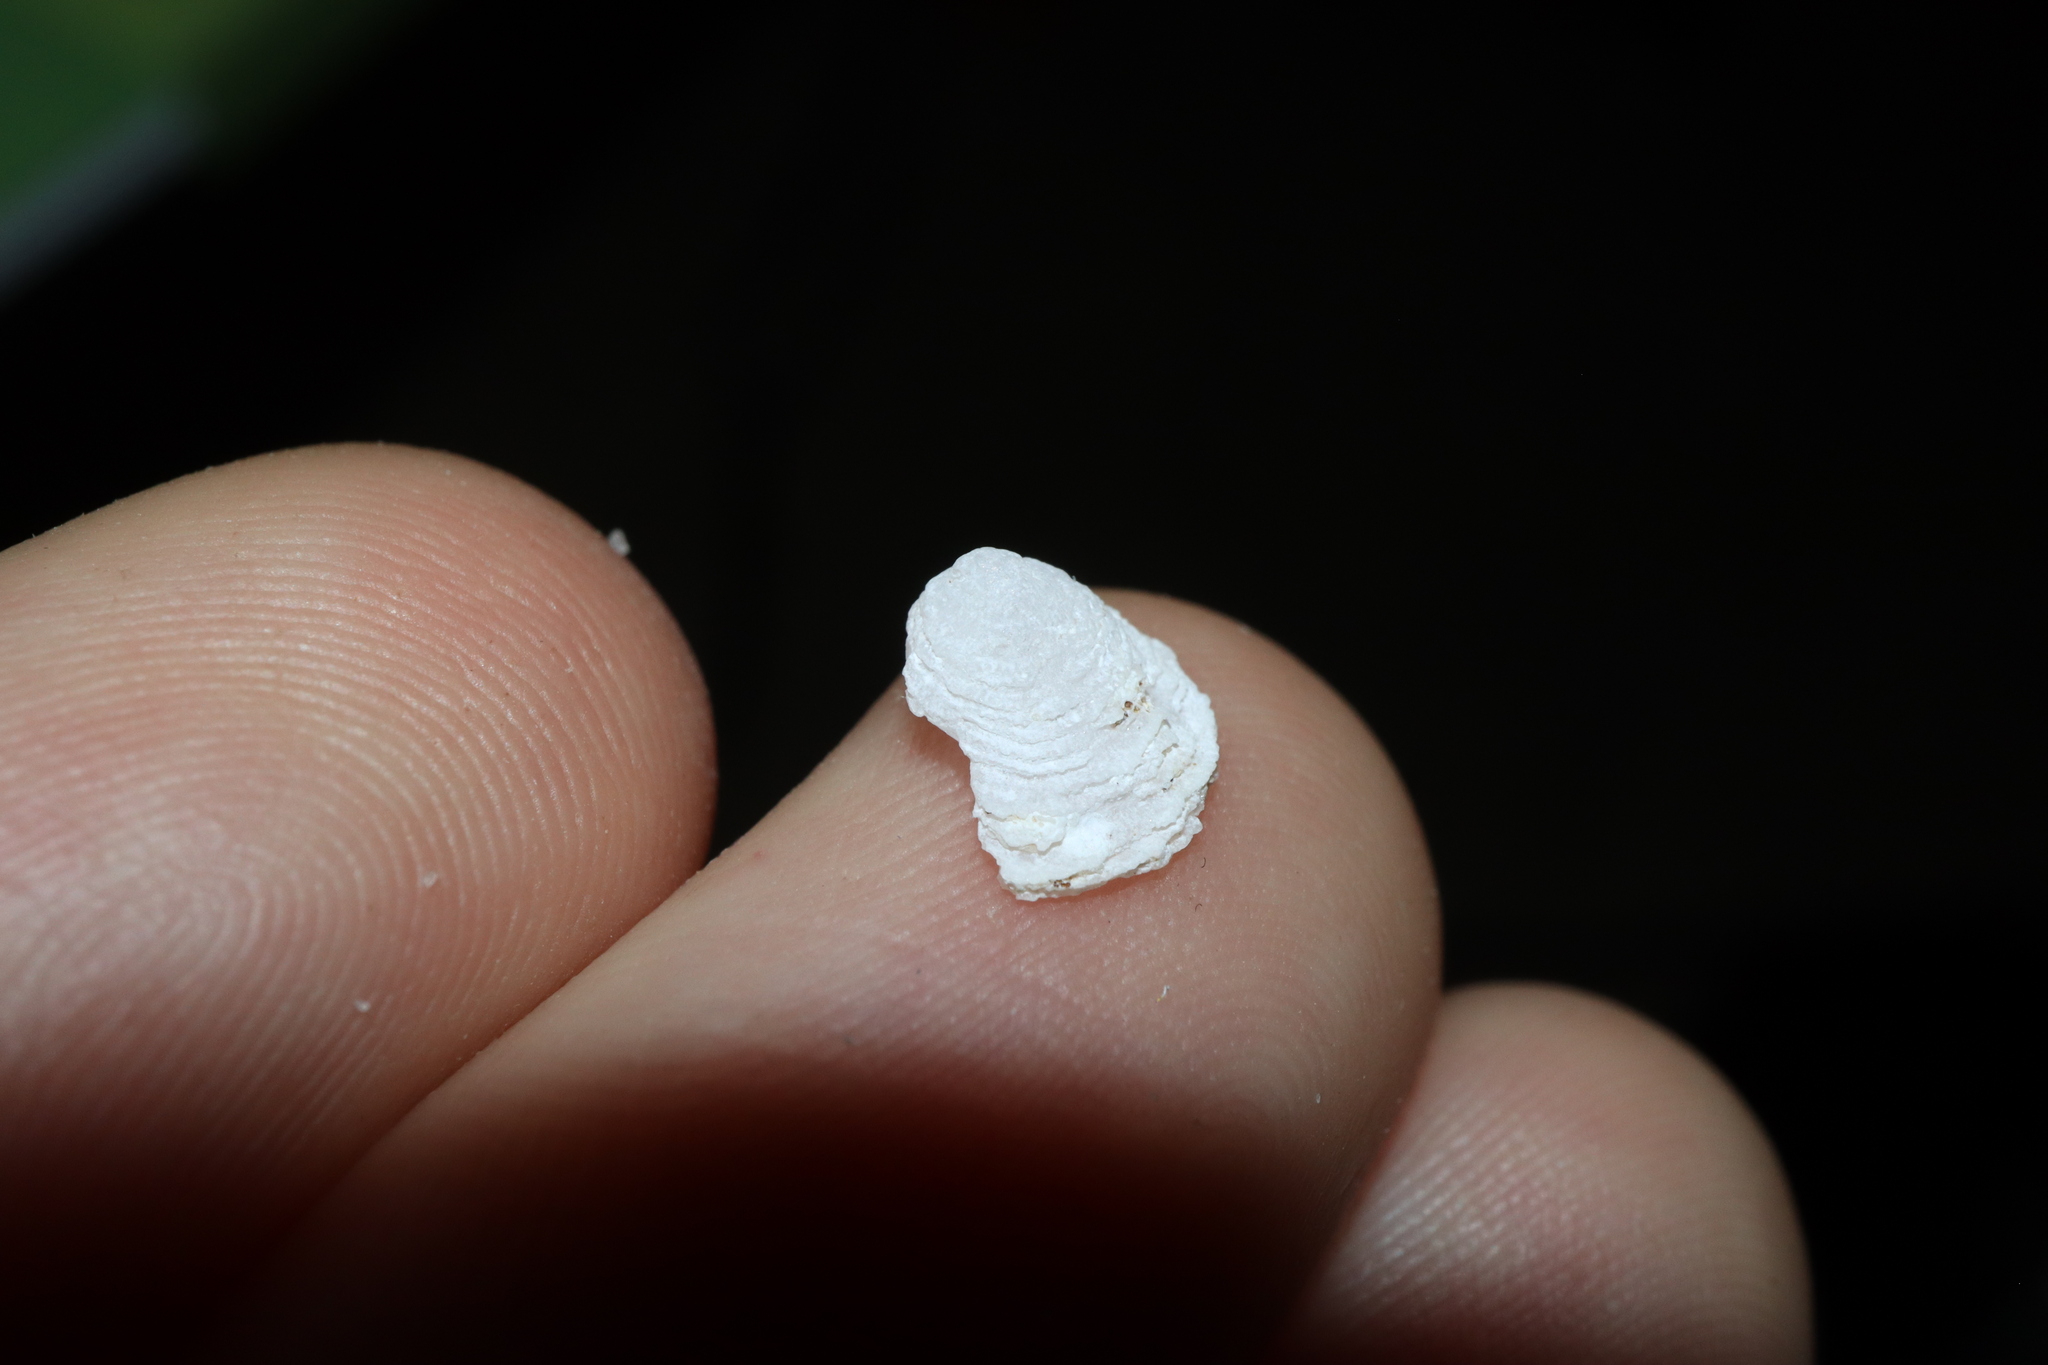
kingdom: Animalia
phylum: Mollusca
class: Gastropoda
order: Littorinimorpha
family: Hipponicidae
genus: Antisabia
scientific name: Antisabia foliacea
